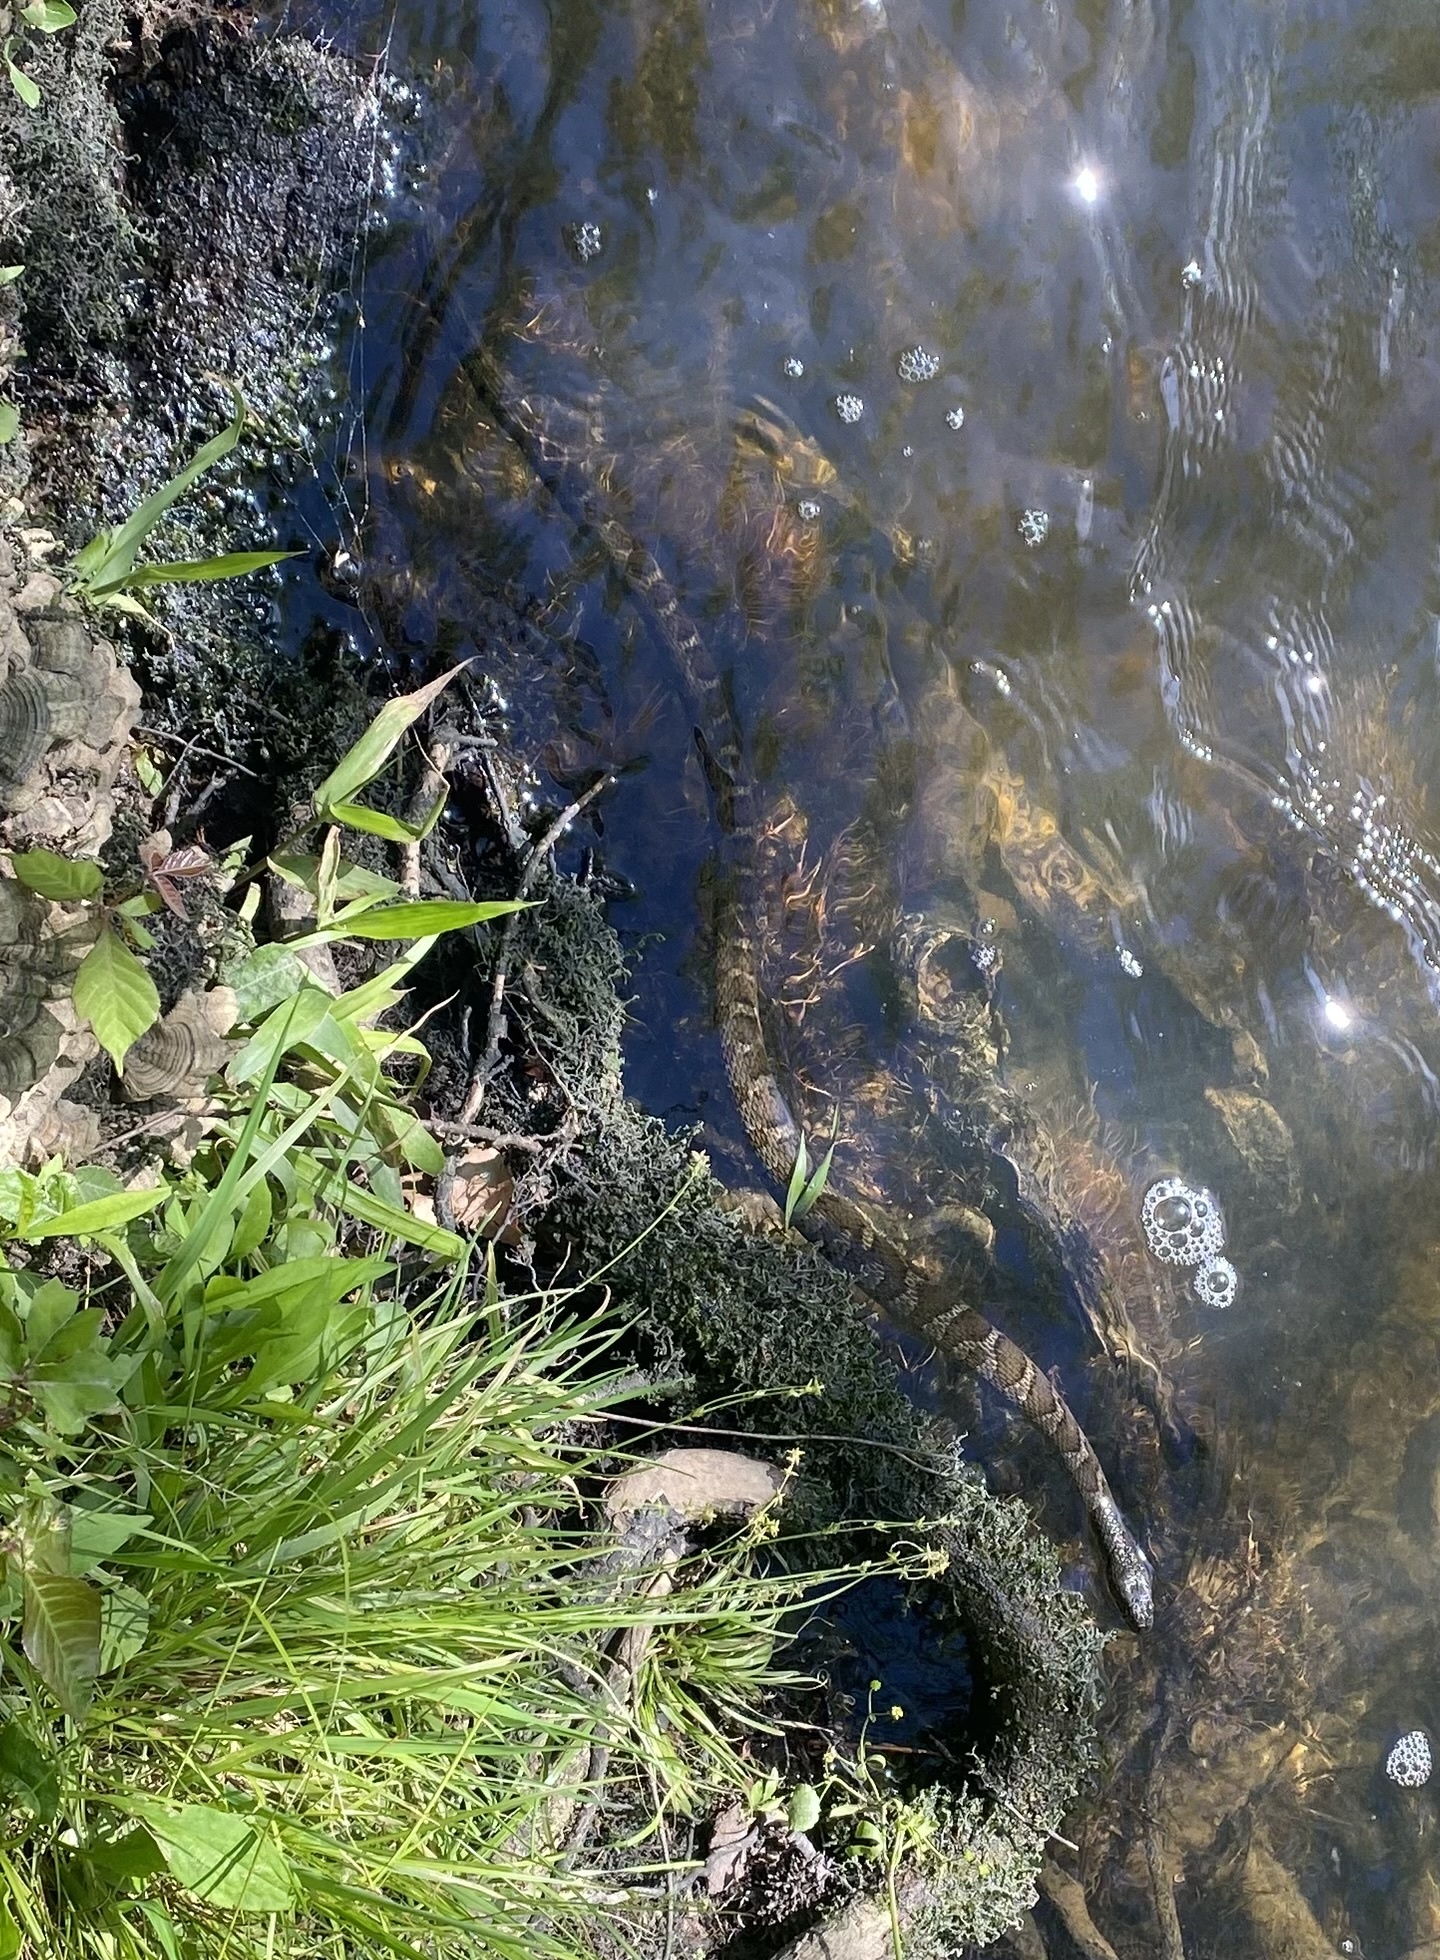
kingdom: Animalia
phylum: Chordata
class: Squamata
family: Colubridae
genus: Nerodia
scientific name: Nerodia sipedon
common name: Northern water snake
